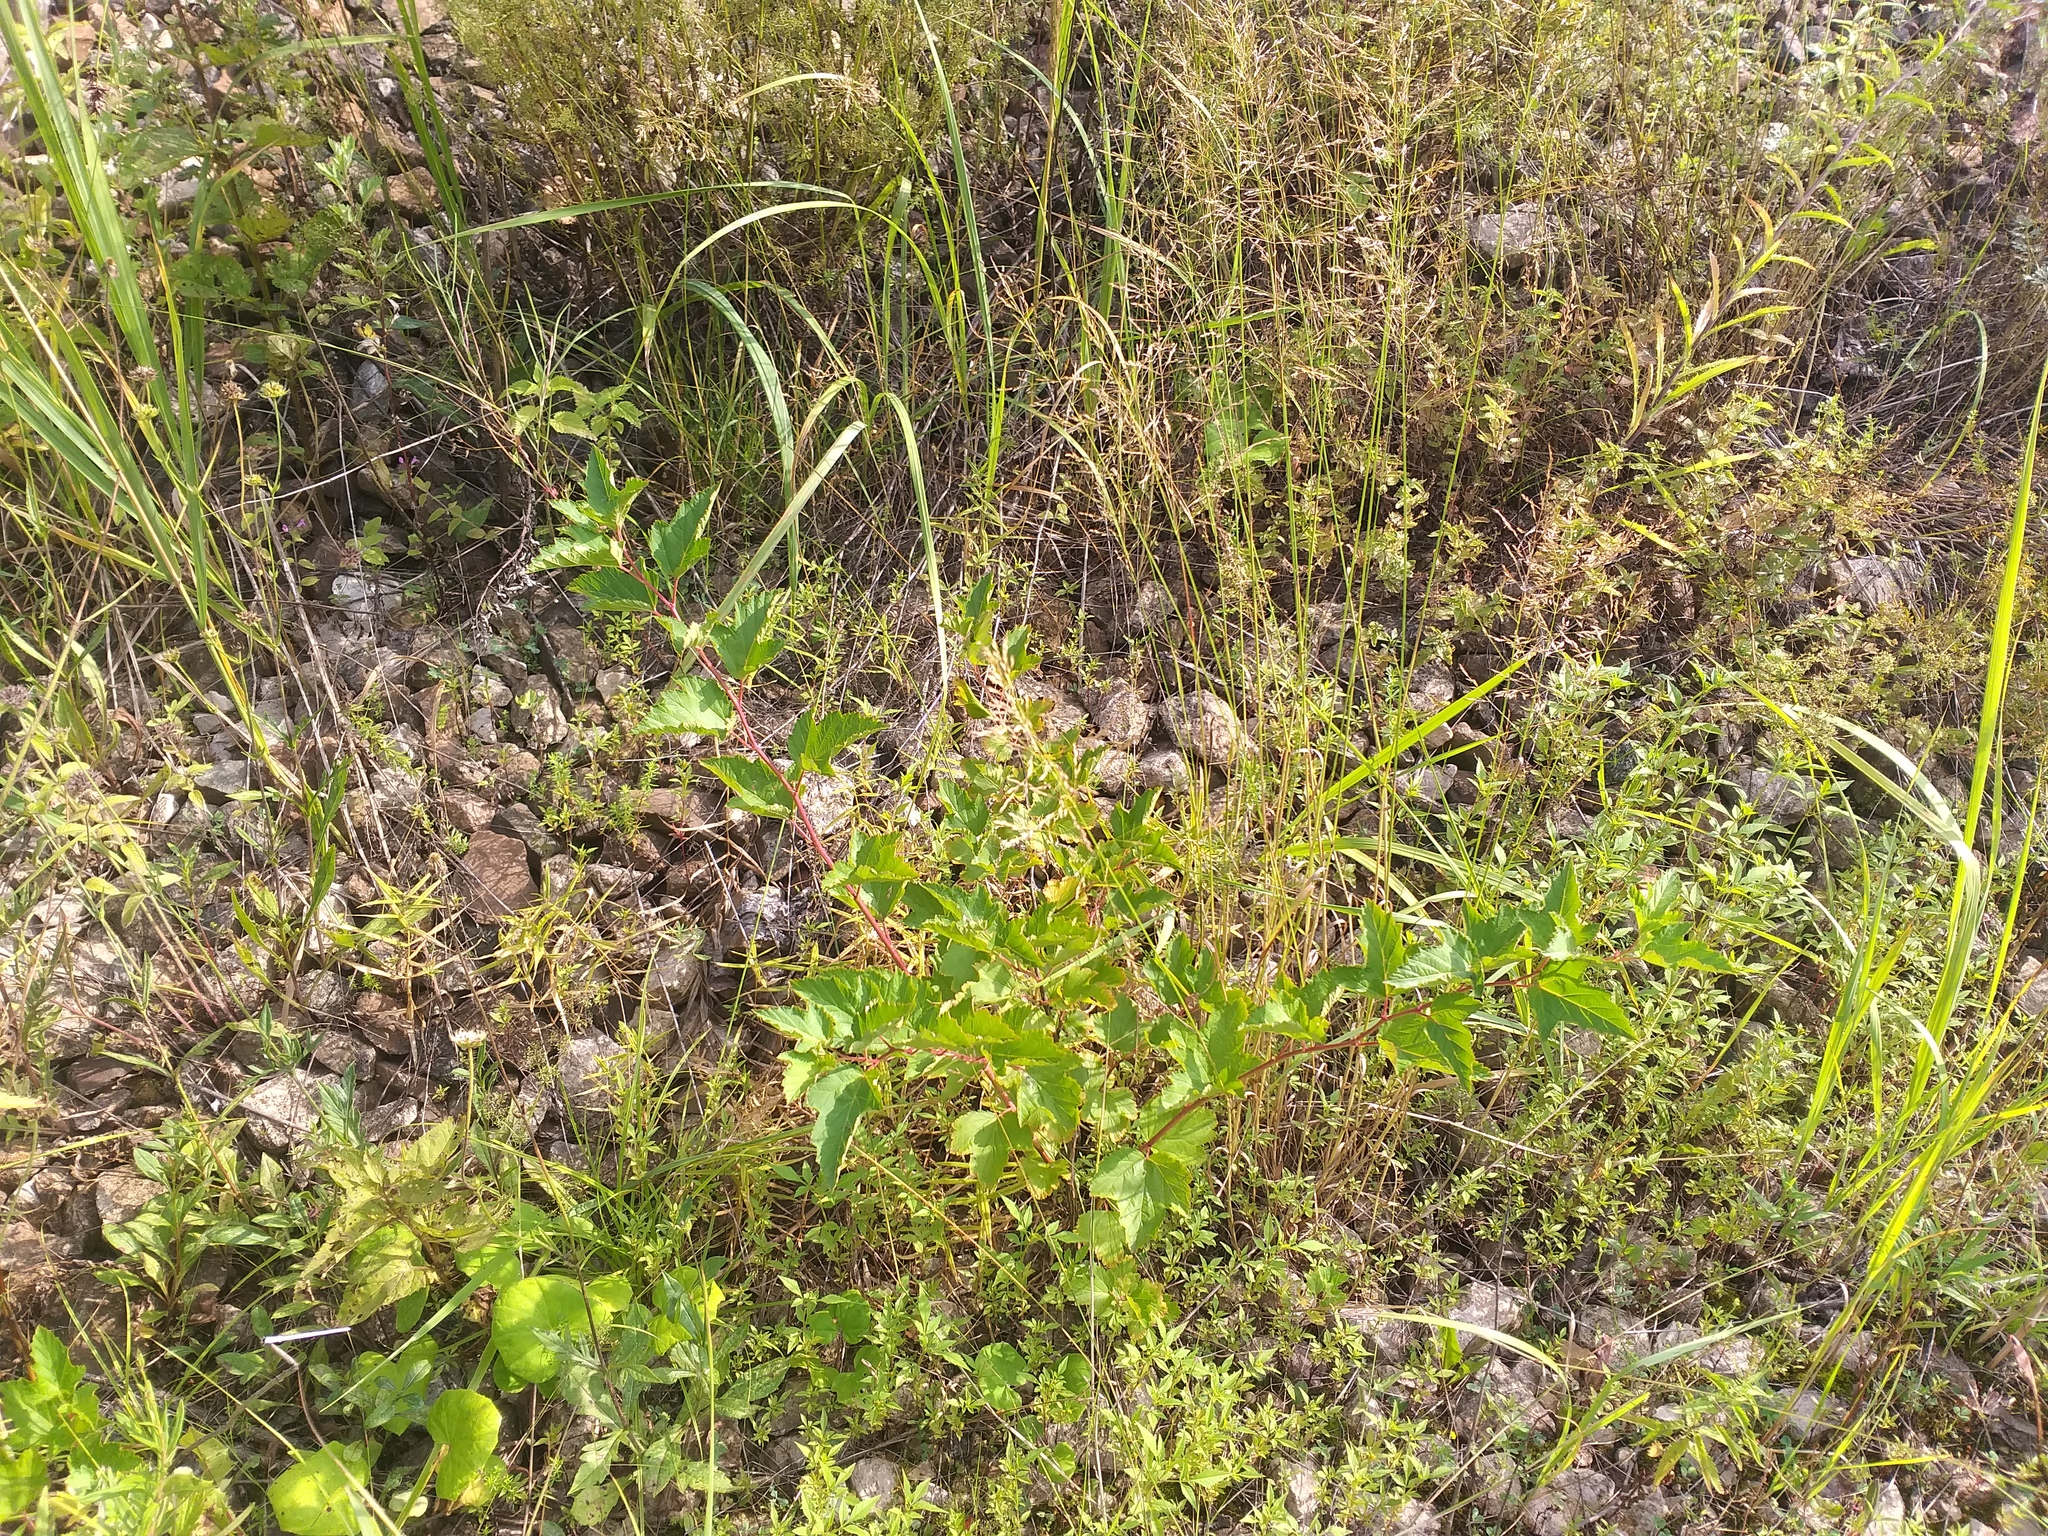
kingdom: Plantae
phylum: Tracheophyta
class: Magnoliopsida
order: Rosales
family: Rosaceae
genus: Physocarpus
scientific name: Physocarpus opulifolius
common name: Ninebark
